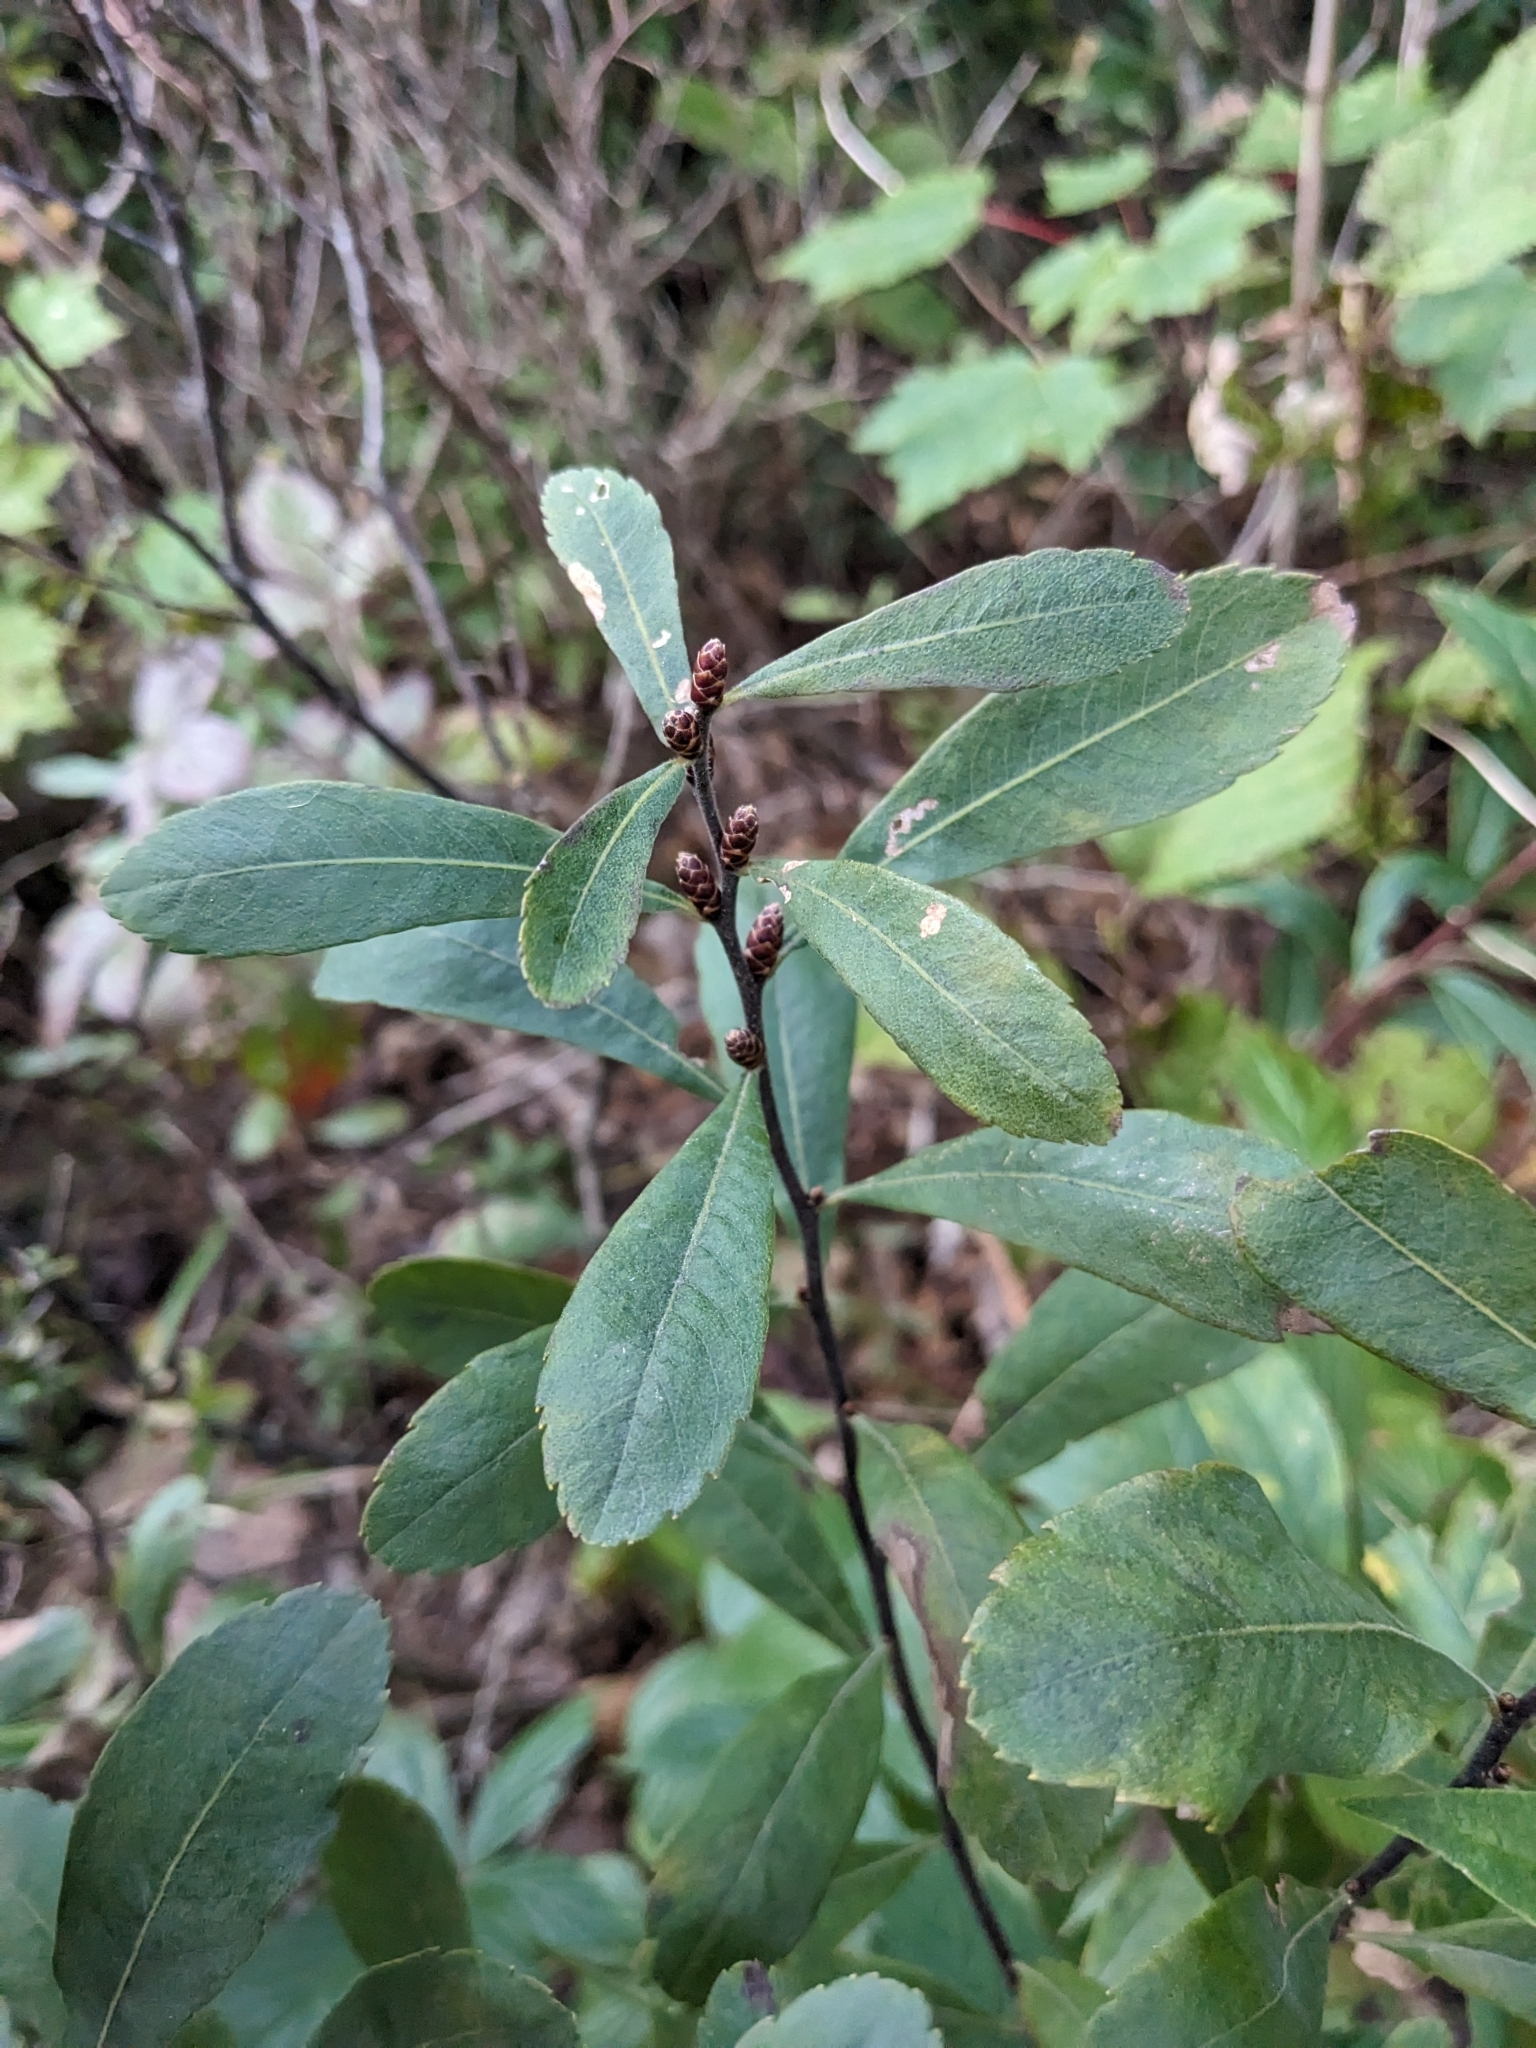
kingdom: Plantae
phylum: Tracheophyta
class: Magnoliopsida
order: Fagales
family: Myricaceae
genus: Myrica
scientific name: Myrica gale
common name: Sweet gale
